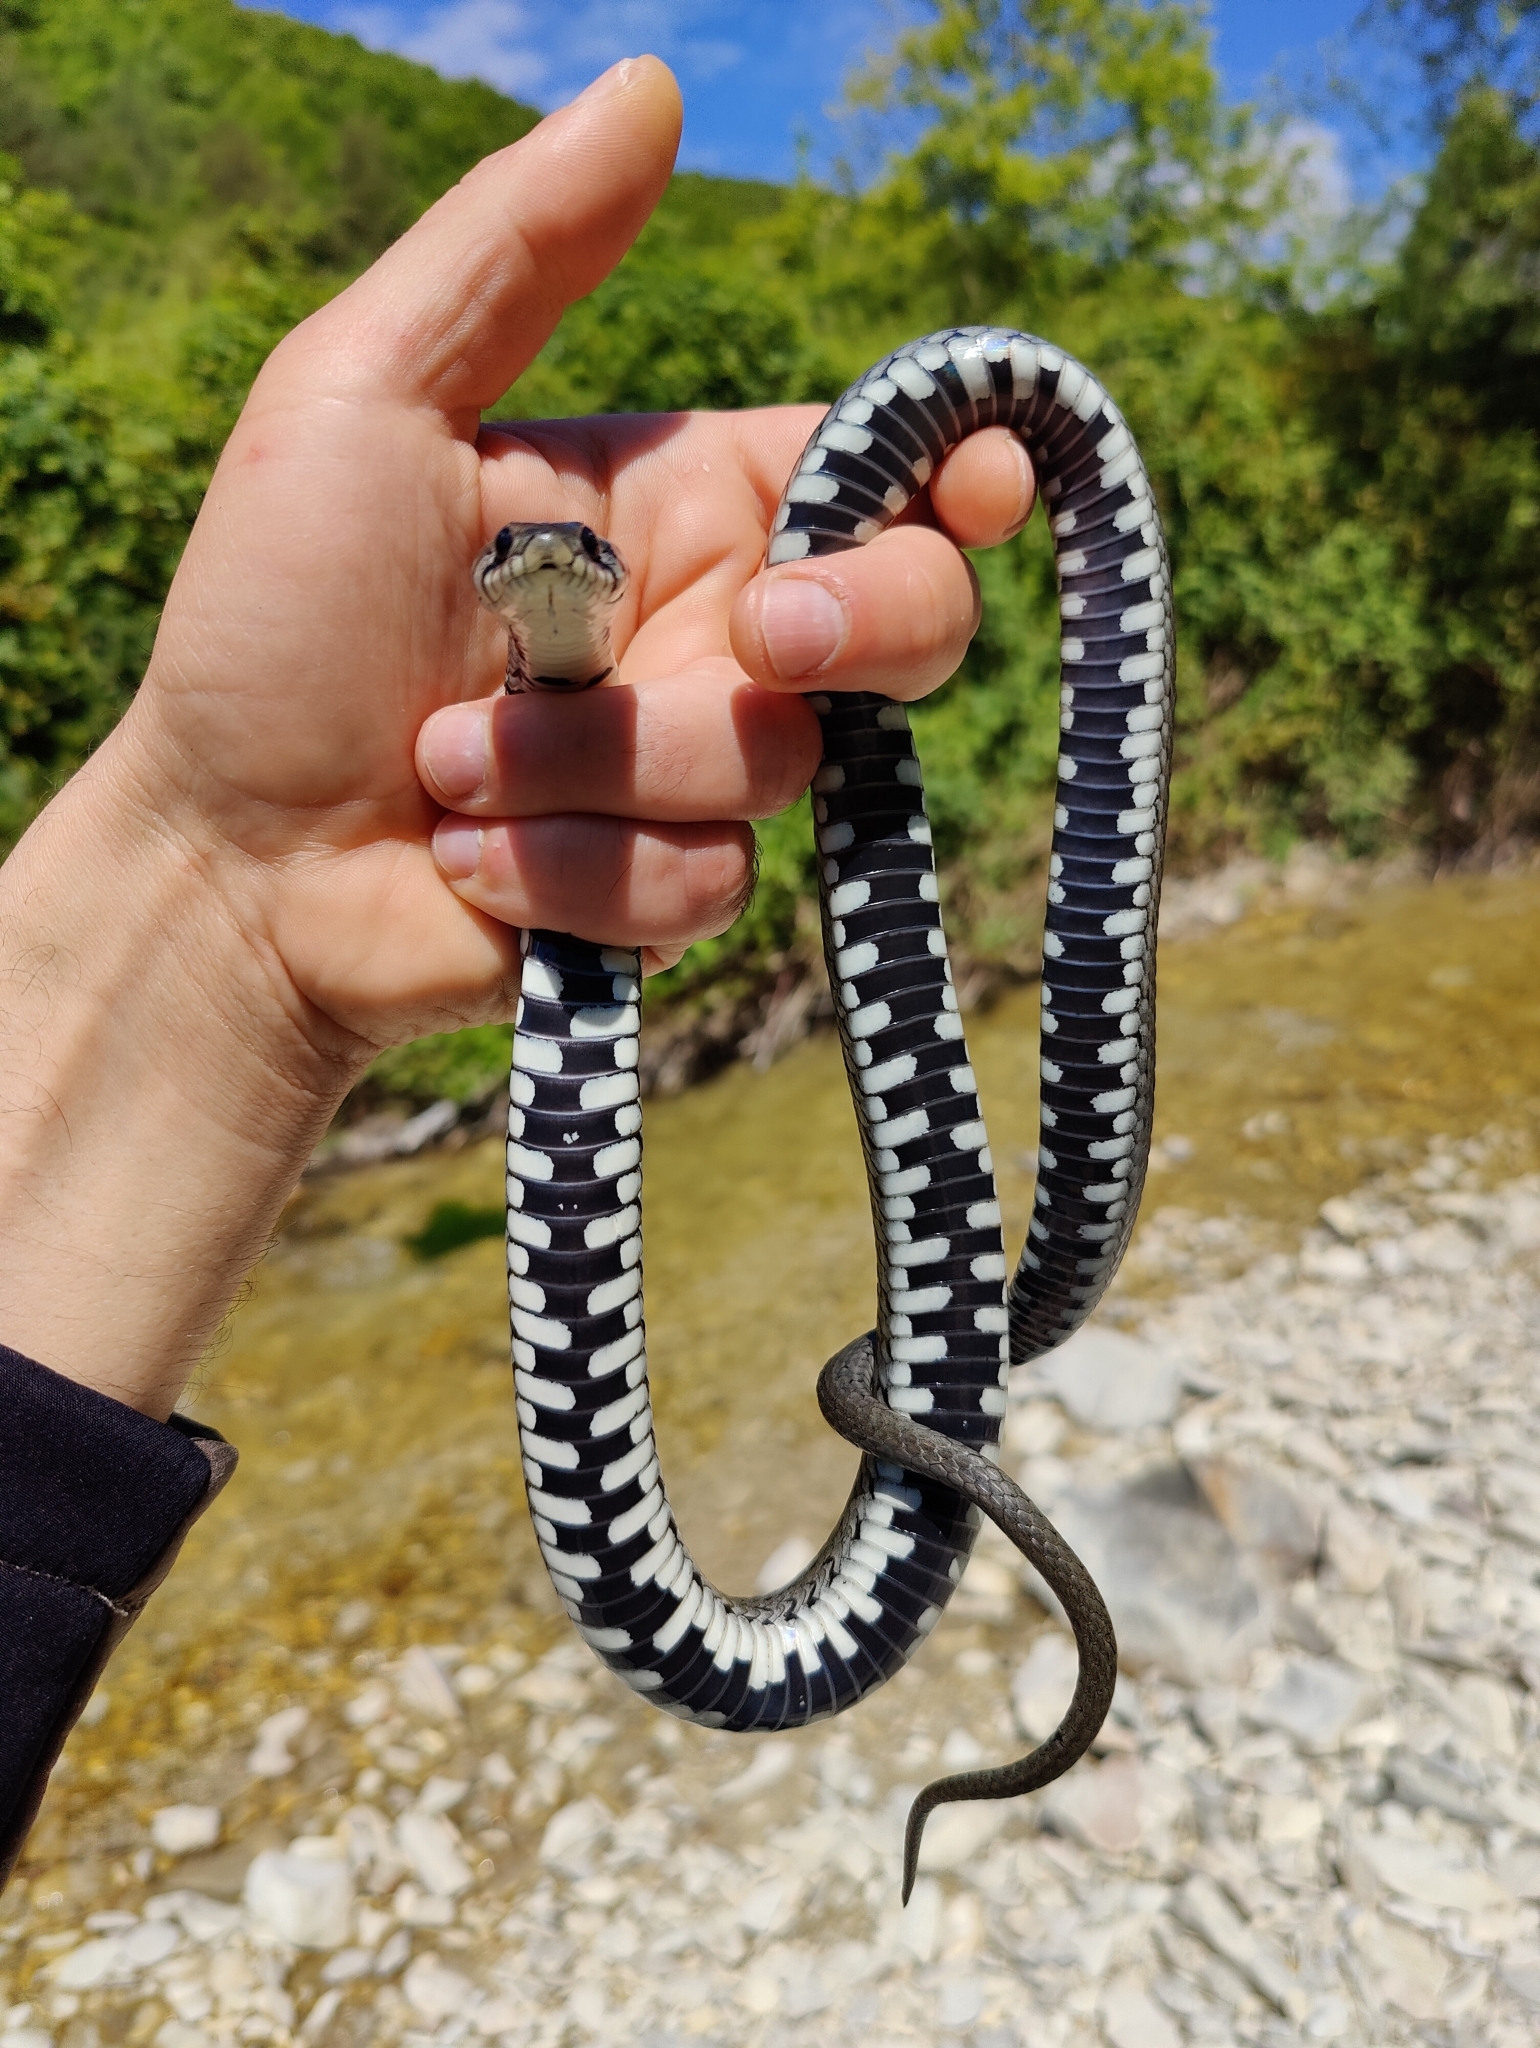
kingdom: Animalia
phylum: Chordata
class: Squamata
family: Colubridae
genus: Natrix
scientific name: Natrix natrix
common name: Grass snake
